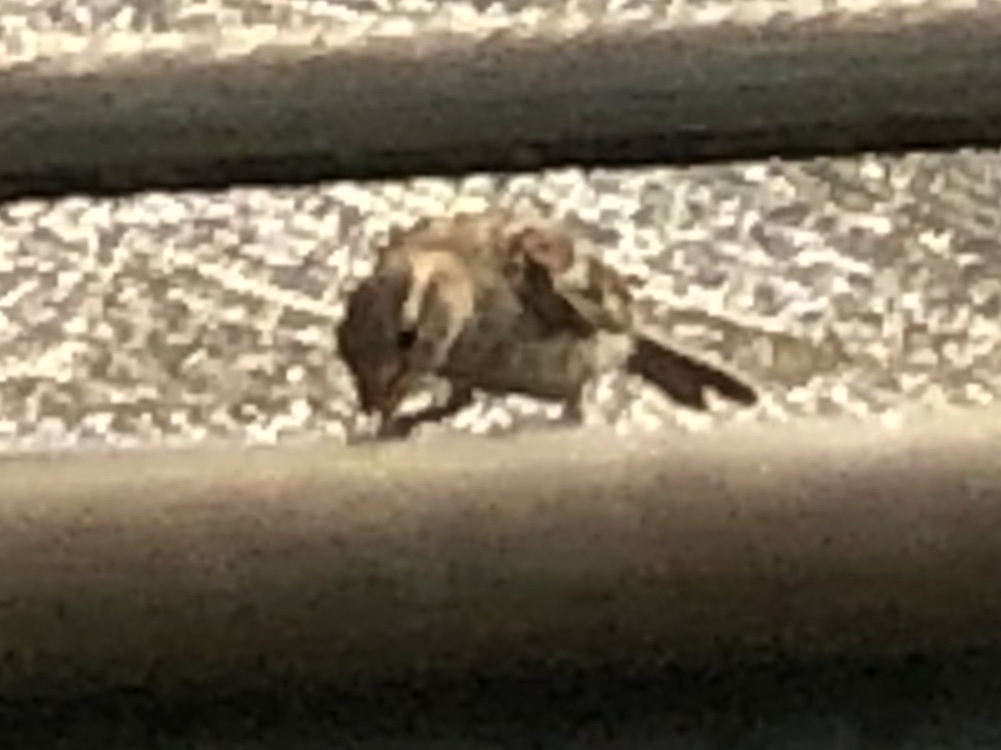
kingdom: Animalia
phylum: Chordata
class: Aves
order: Passeriformes
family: Passeridae
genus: Passer
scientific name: Passer domesticus
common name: House sparrow
